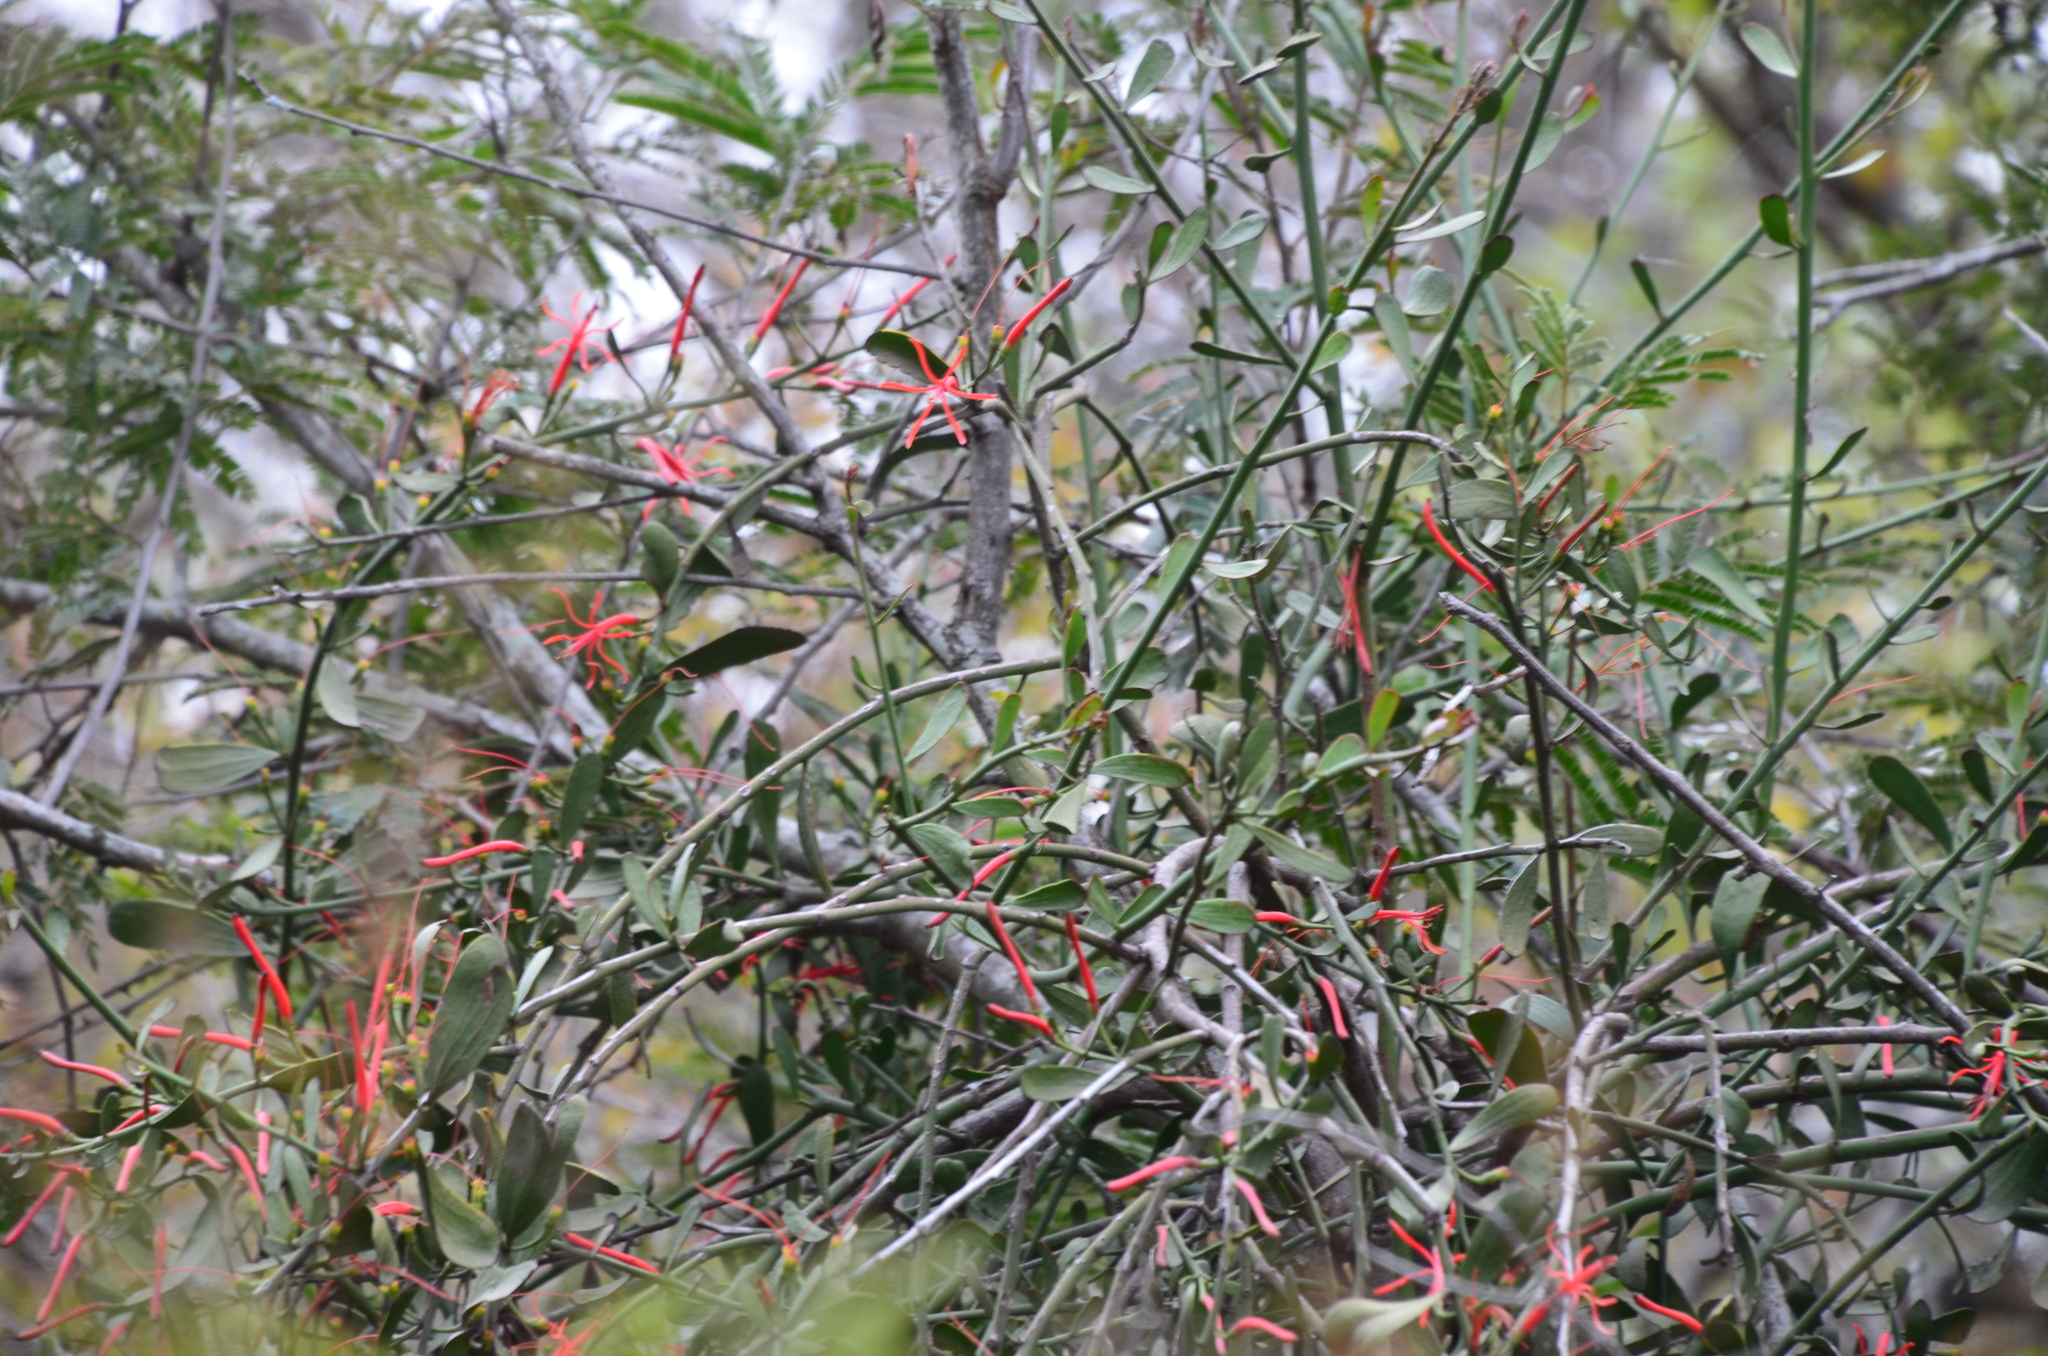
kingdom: Plantae
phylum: Tracheophyta
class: Magnoliopsida
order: Santalales
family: Loranthaceae
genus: Ligaria
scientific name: Ligaria cuneifolia
